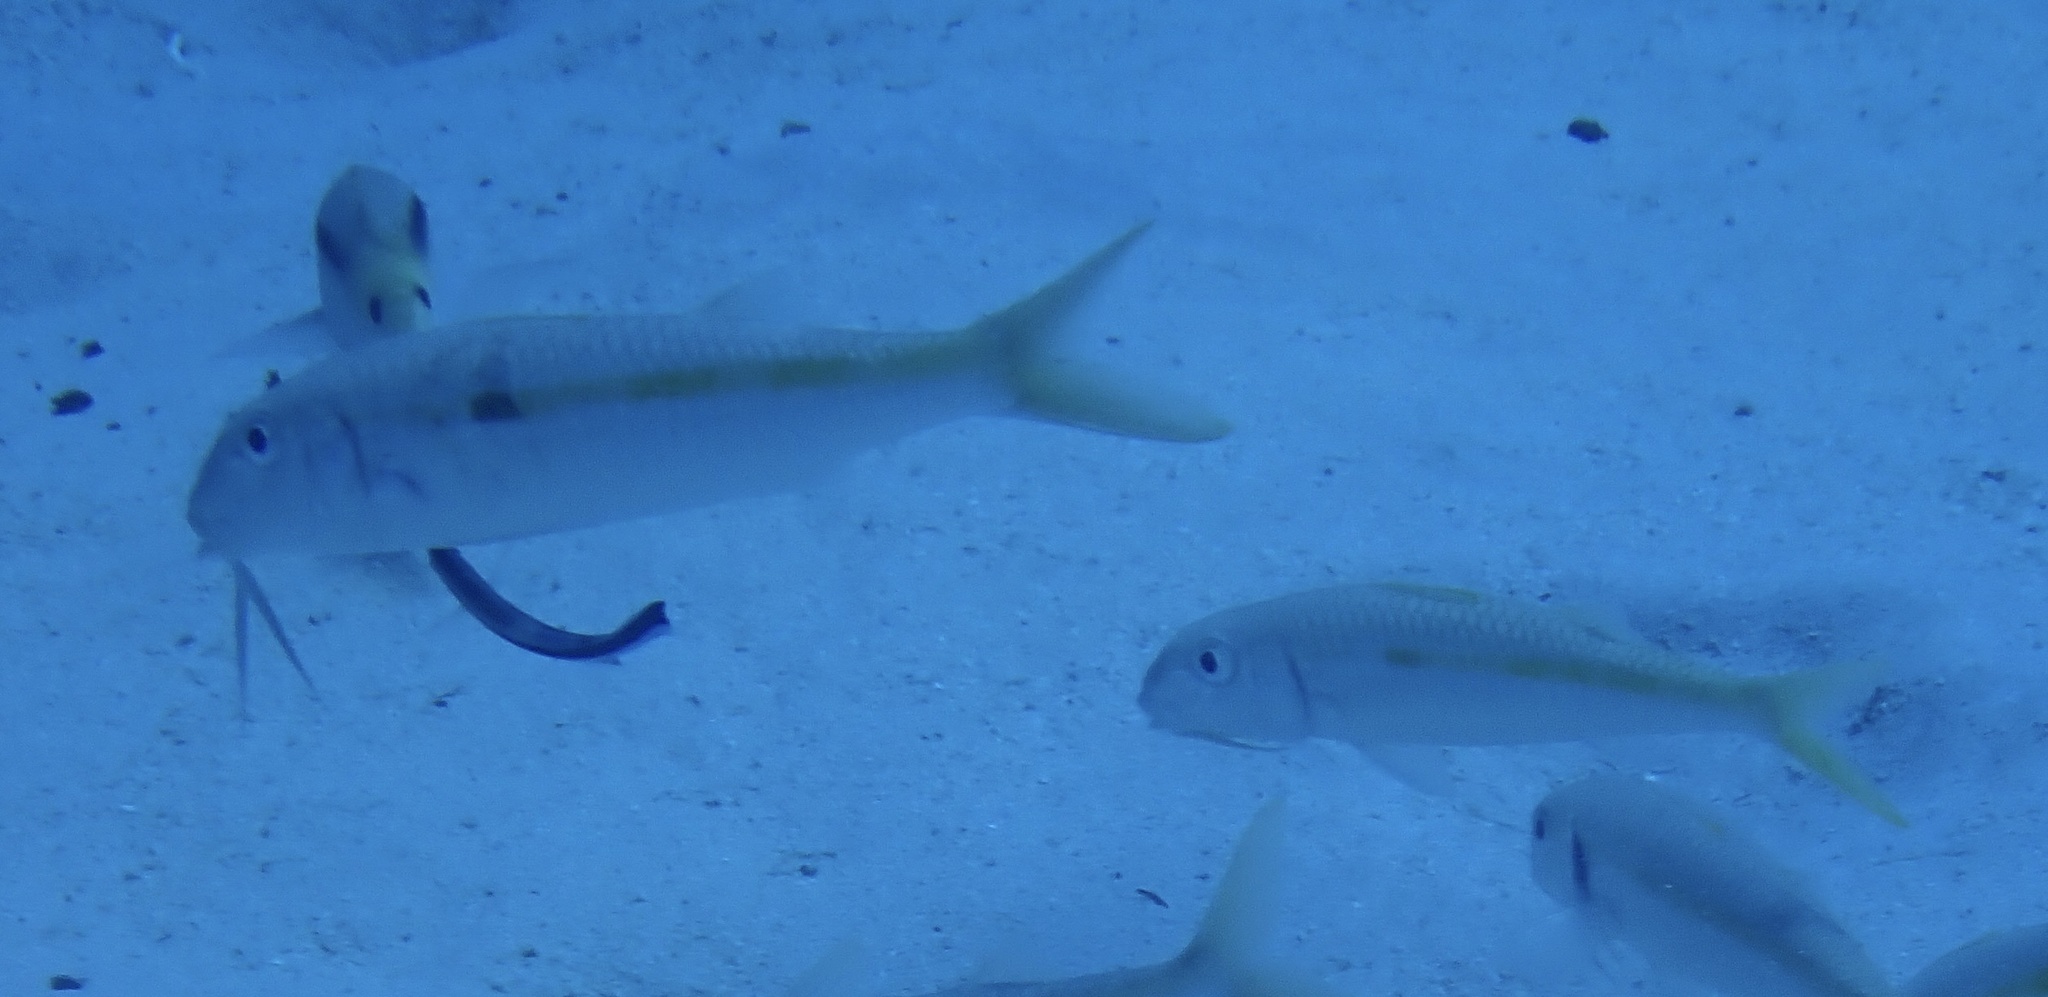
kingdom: Animalia
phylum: Chordata
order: Perciformes
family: Mullidae
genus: Mulloidichthys
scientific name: Mulloidichthys flavolineatus
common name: Yellowstripe goatfish
